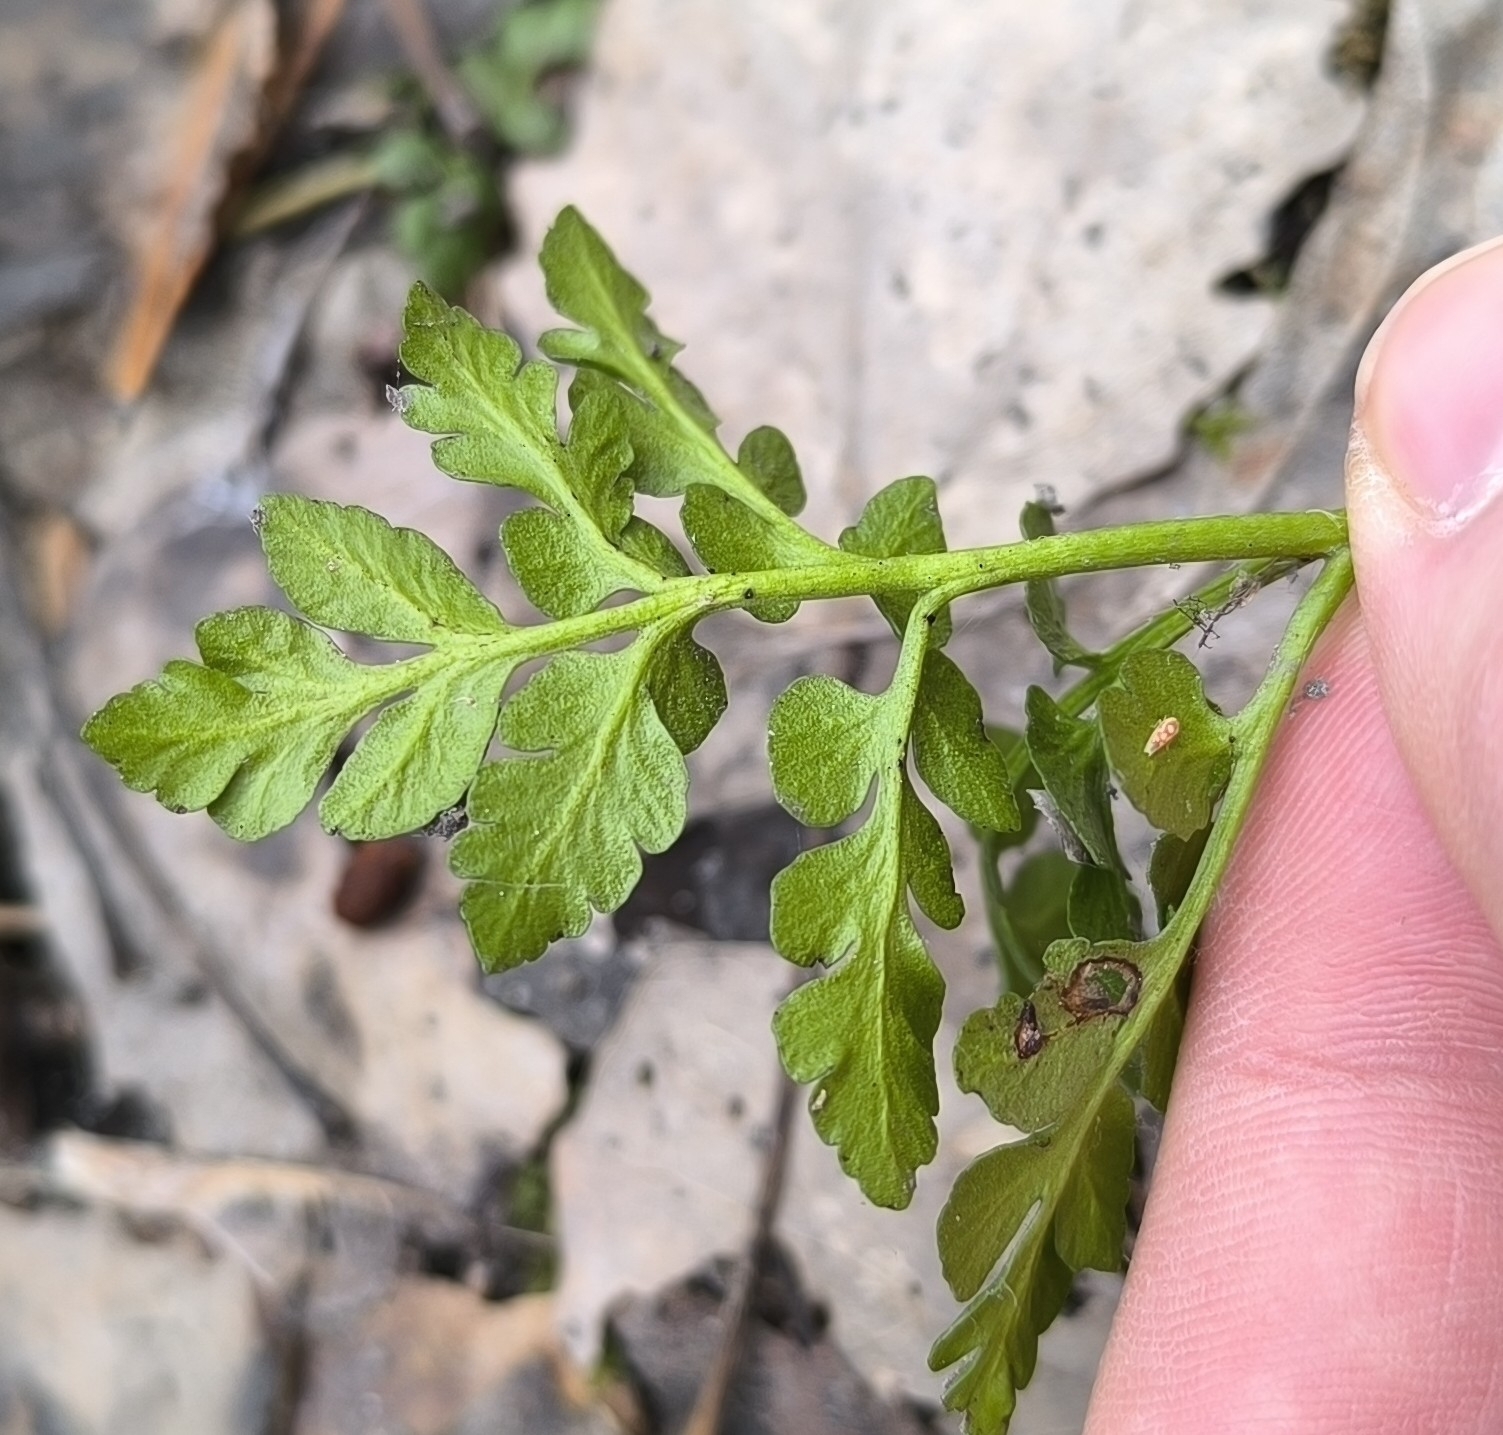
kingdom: Plantae
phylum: Tracheophyta
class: Polypodiopsida
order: Ophioglossales
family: Ophioglossaceae
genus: Sceptridium
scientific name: Sceptridium multifidum
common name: Leathery grape fern
